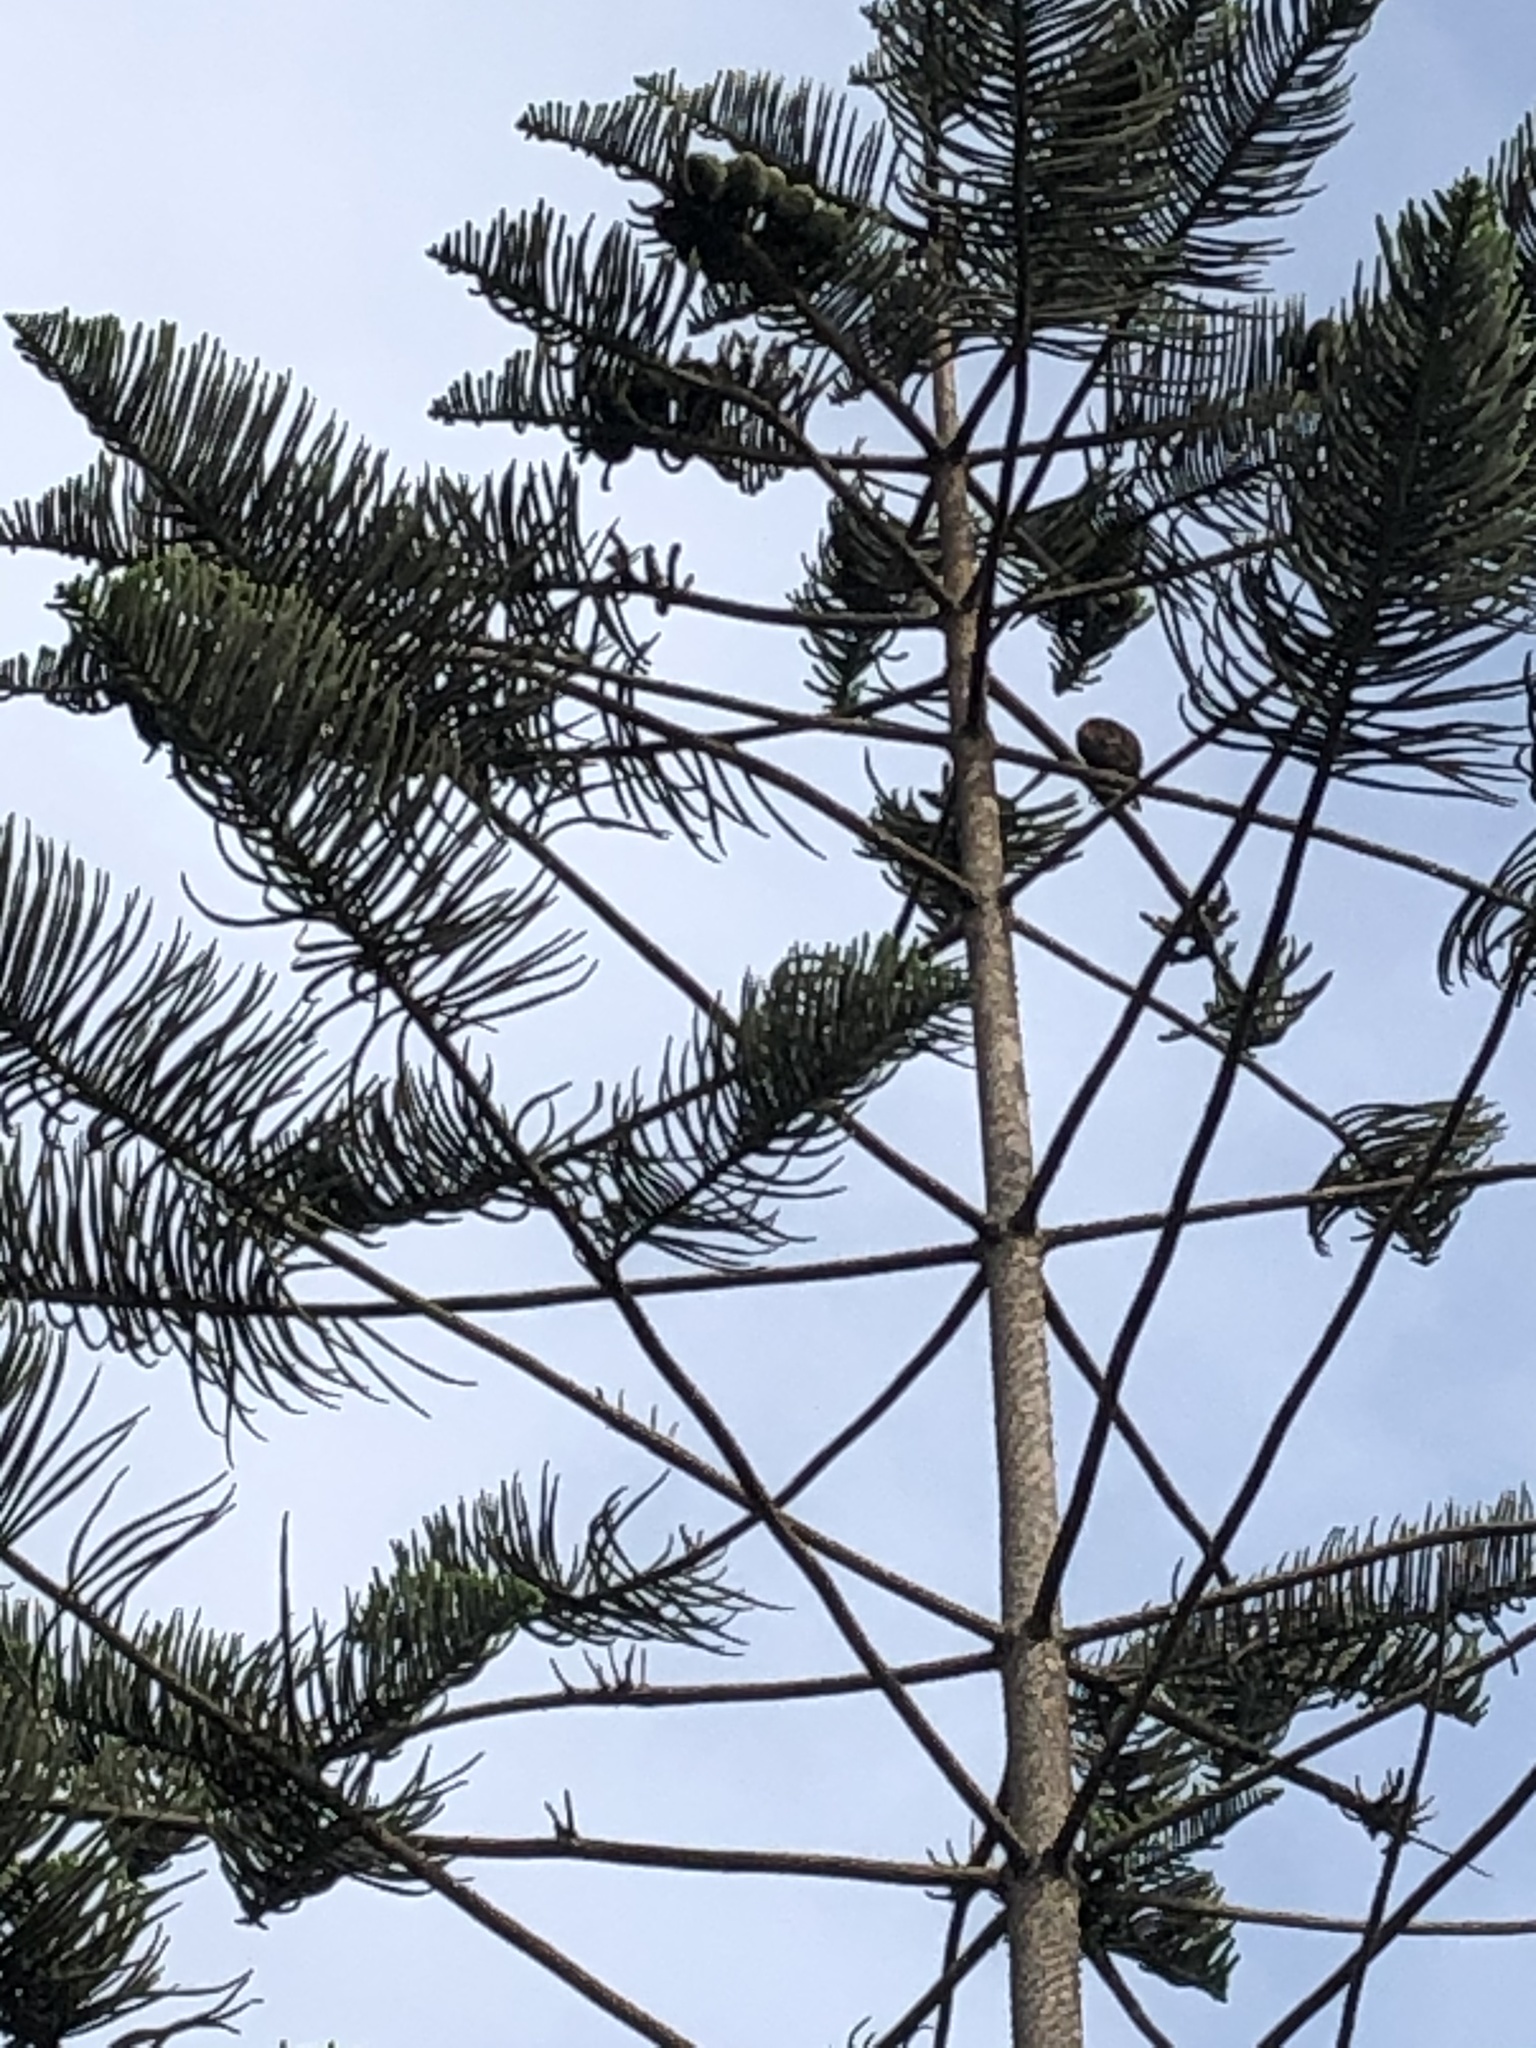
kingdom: Animalia
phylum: Chordata
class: Aves
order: Accipitriformes
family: Accipitridae
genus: Parabuteo
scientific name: Parabuteo unicinctus
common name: Harris's hawk
